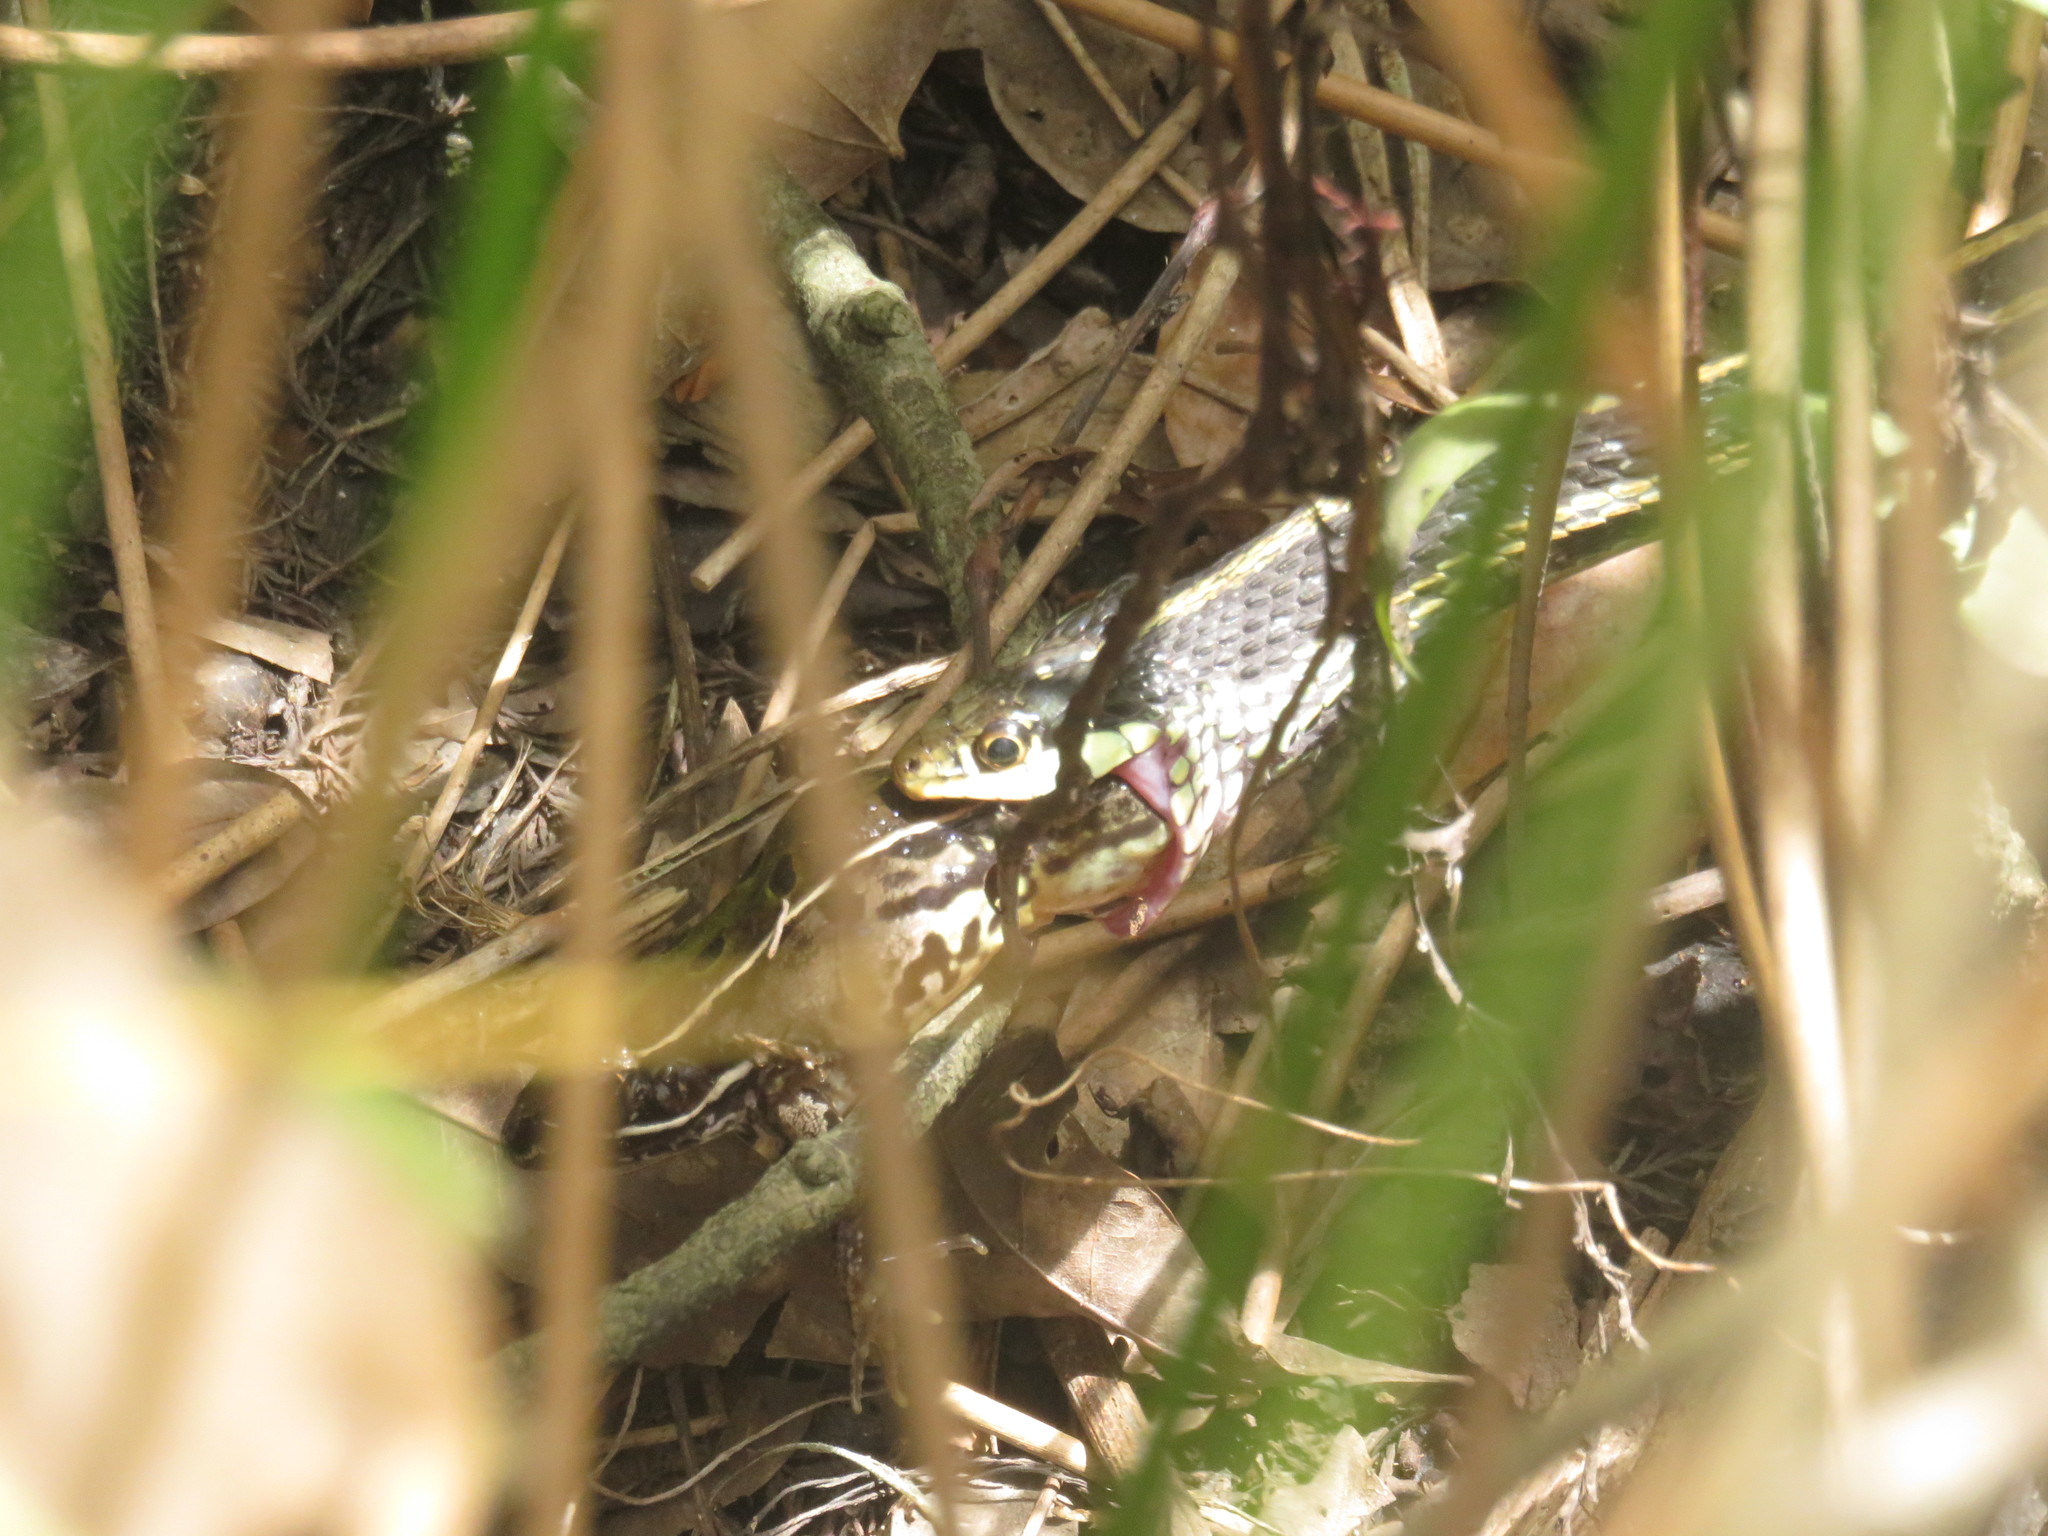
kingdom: Animalia
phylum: Chordata
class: Squamata
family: Colubridae
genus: Thamnophis
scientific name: Thamnophis proximus
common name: Western ribbon snake
